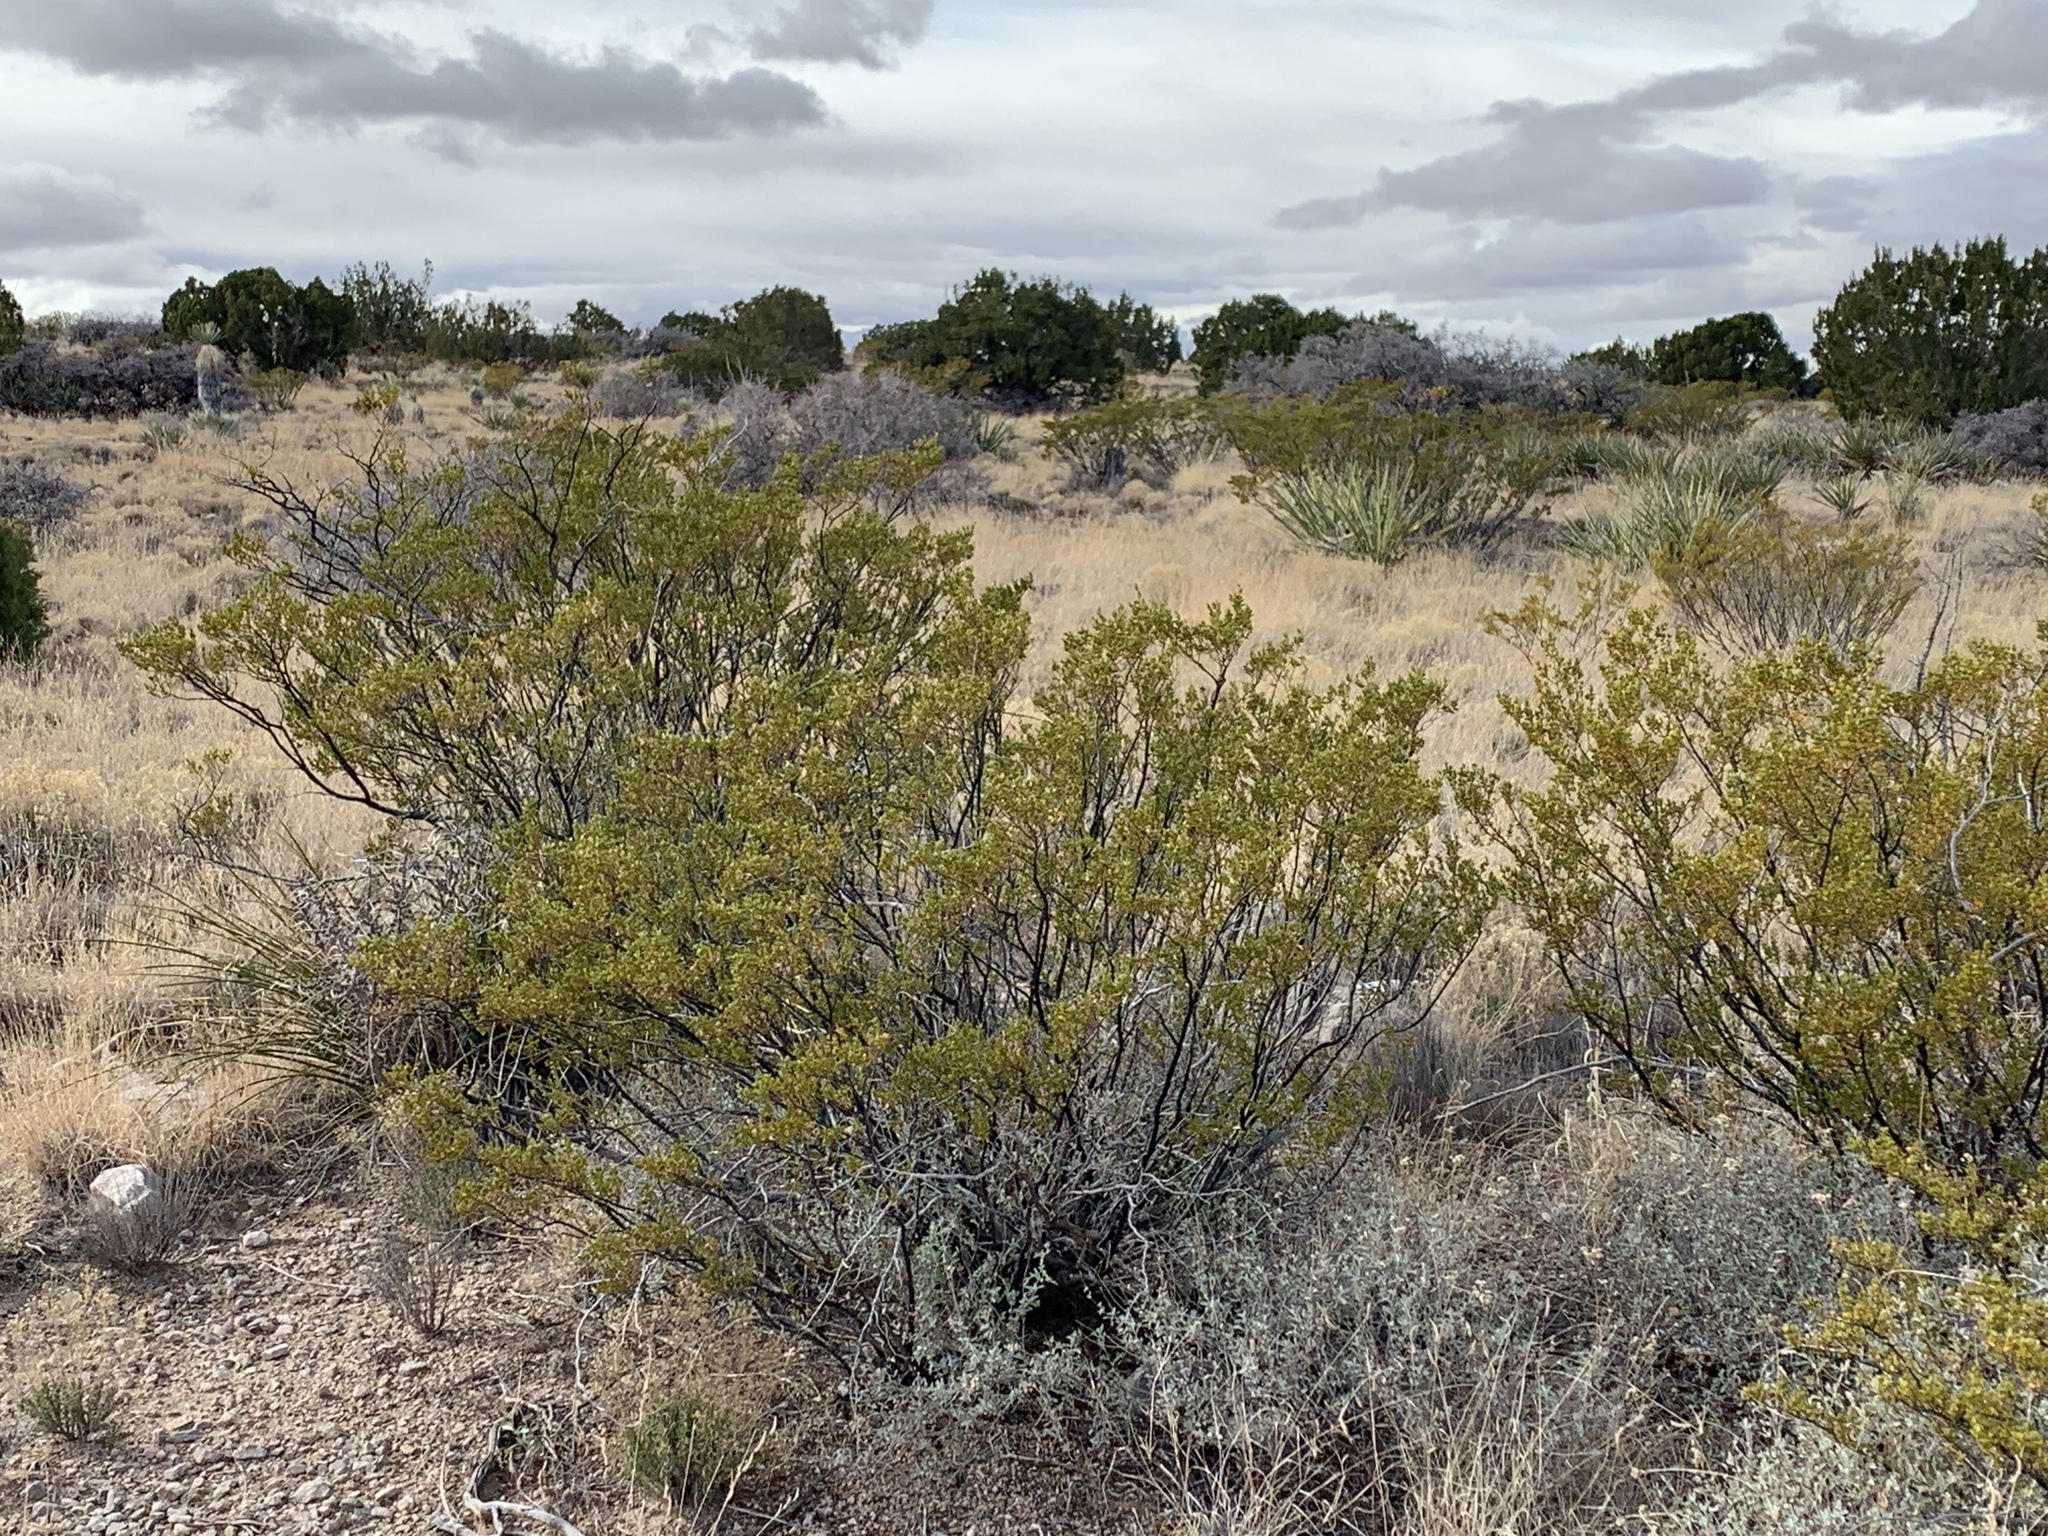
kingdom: Plantae
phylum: Tracheophyta
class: Magnoliopsida
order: Zygophyllales
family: Zygophyllaceae
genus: Larrea
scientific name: Larrea tridentata
